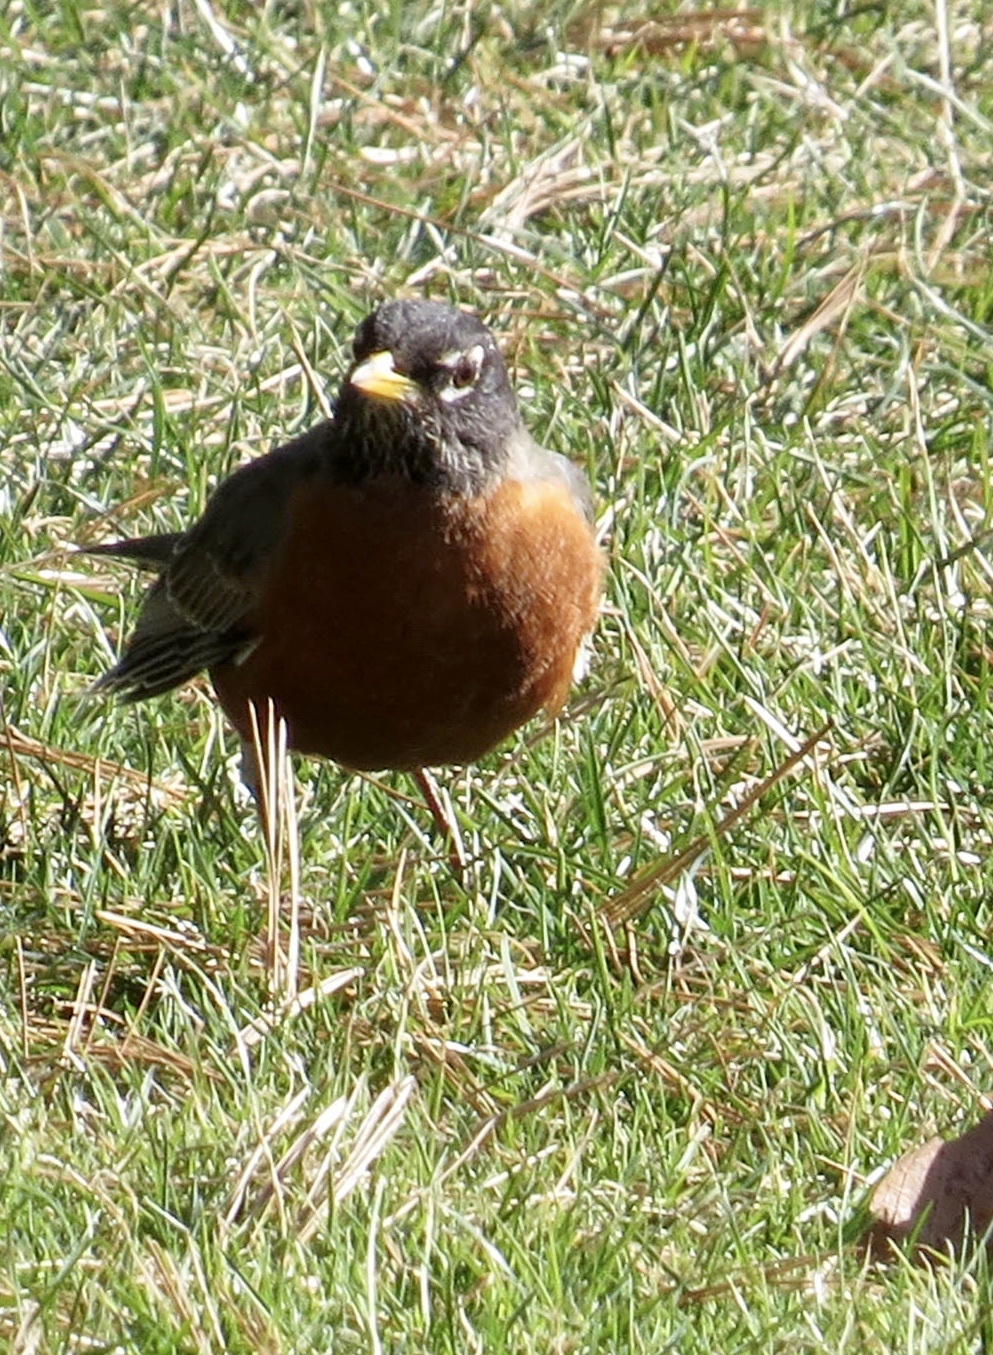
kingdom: Animalia
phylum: Chordata
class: Aves
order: Passeriformes
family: Turdidae
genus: Turdus
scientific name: Turdus migratorius
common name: American robin
